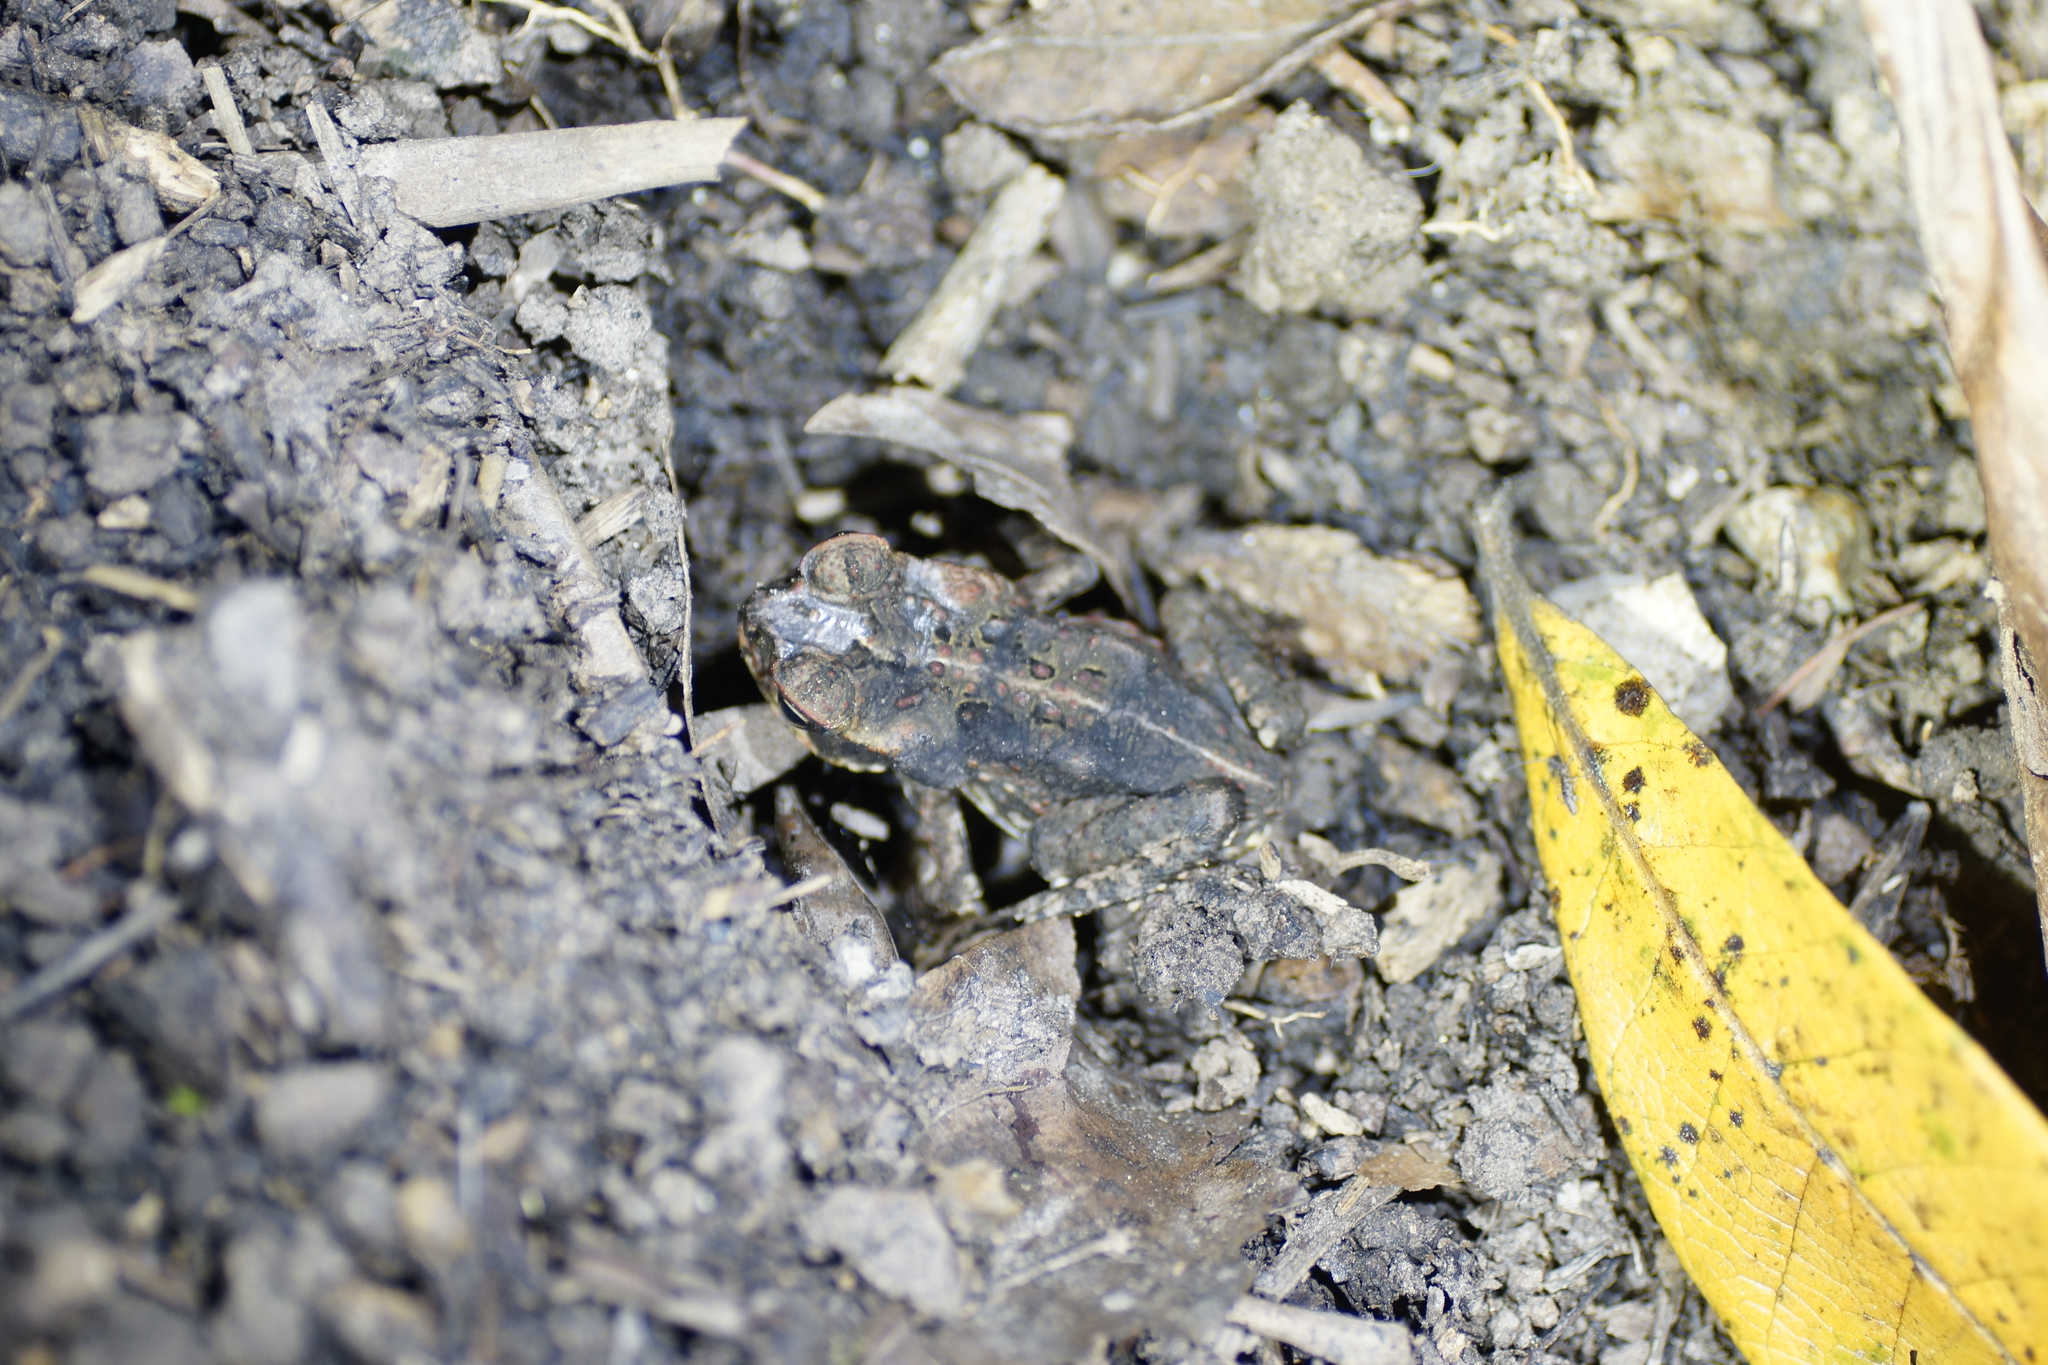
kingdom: Animalia
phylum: Chordata
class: Amphibia
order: Anura
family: Bufonidae
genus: Rhinella
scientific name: Rhinella marina
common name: Cane toad
